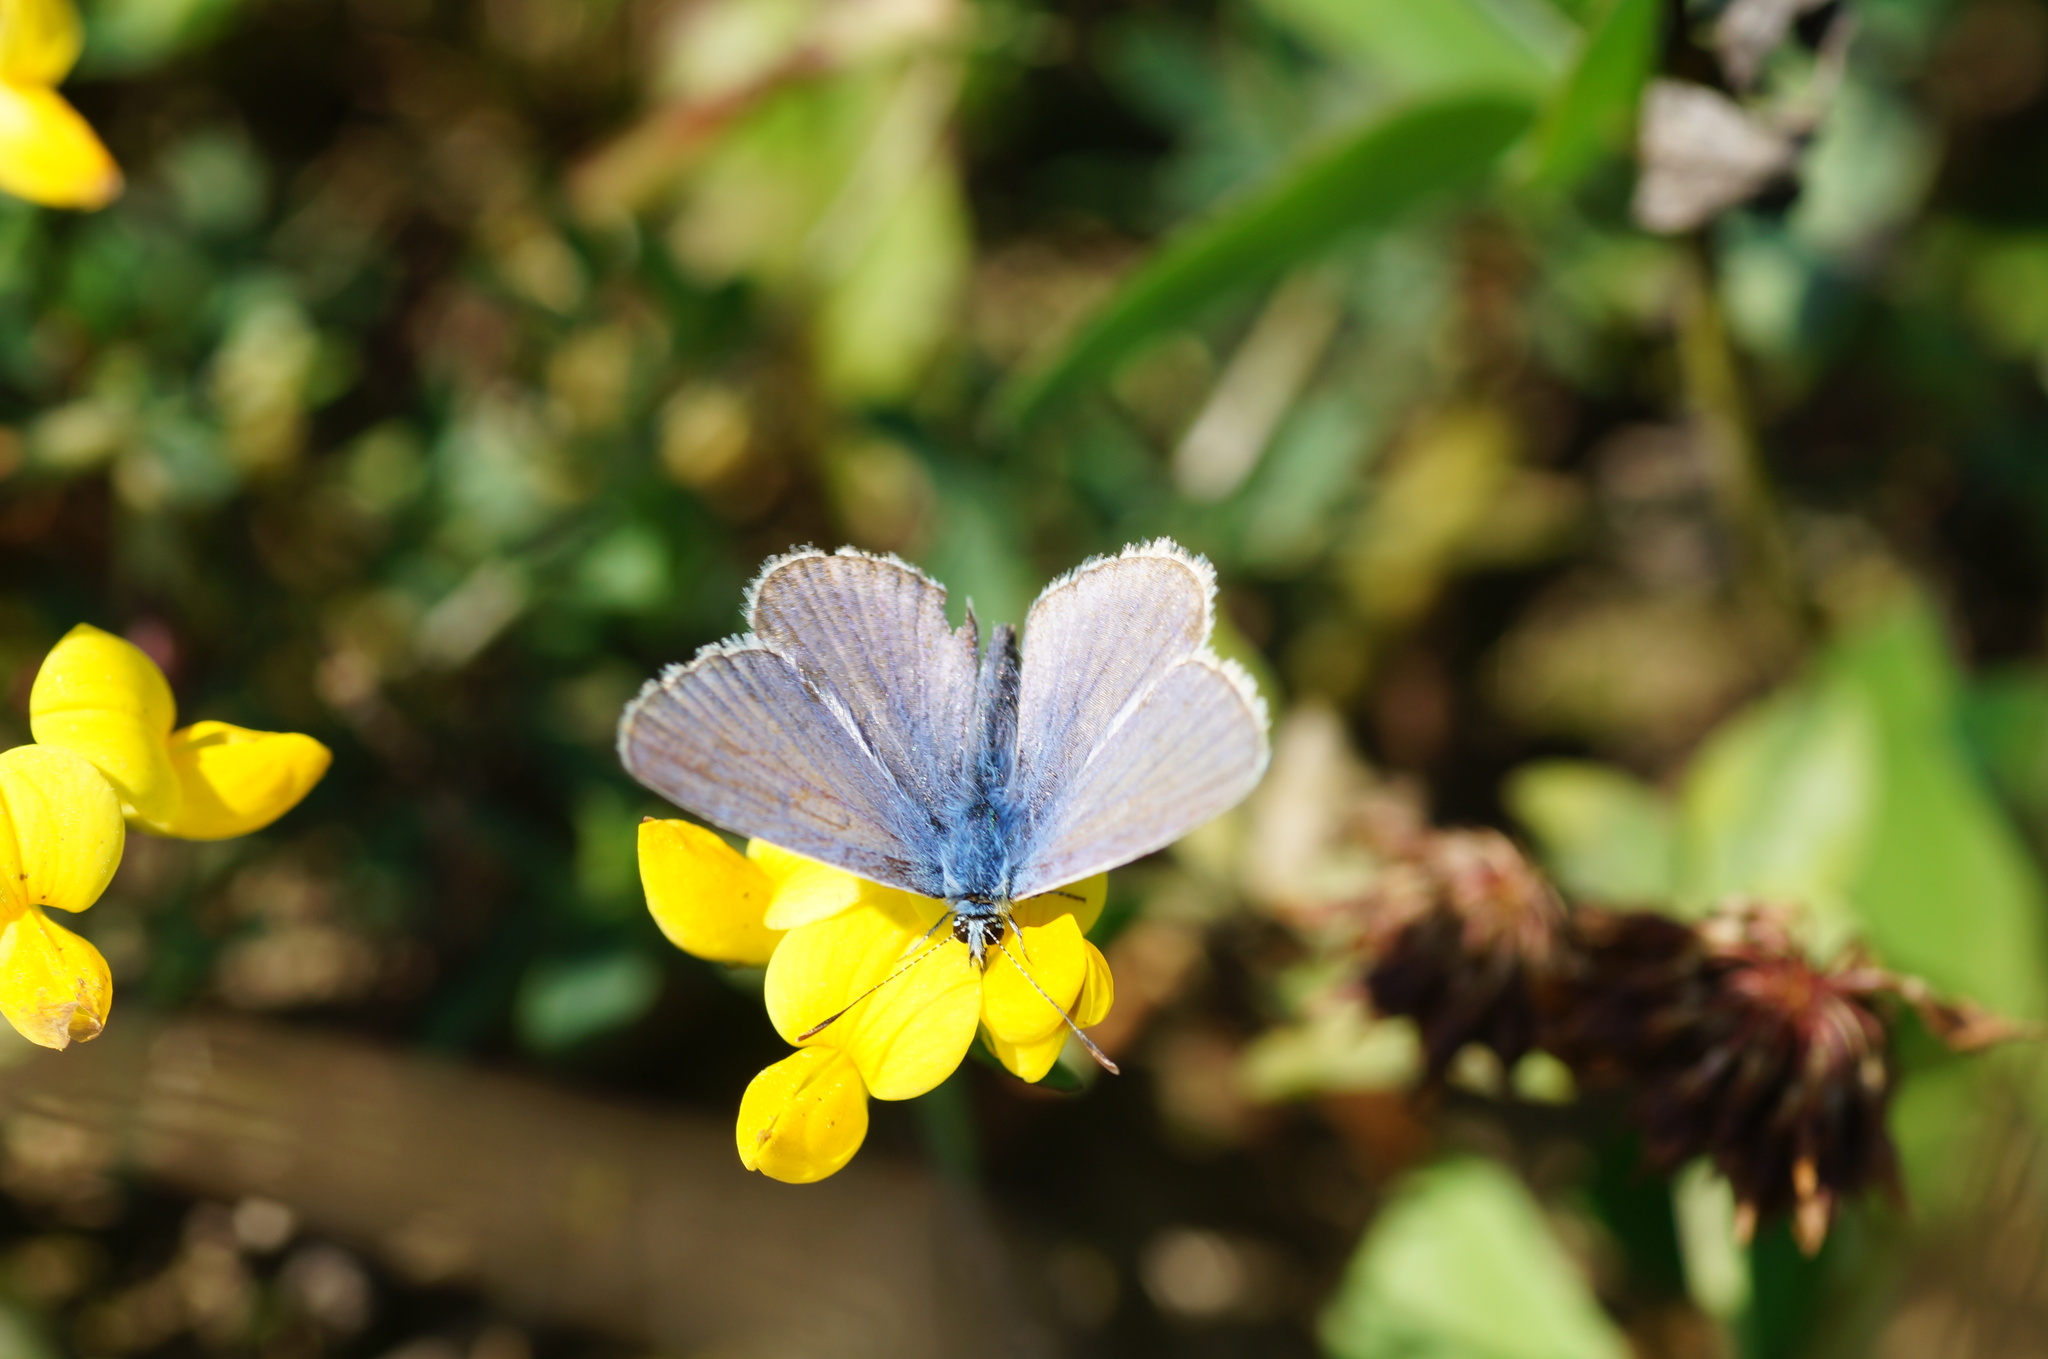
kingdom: Animalia
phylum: Arthropoda
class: Insecta
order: Lepidoptera
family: Lycaenidae
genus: Polyommatus
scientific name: Polyommatus icarus
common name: Common blue
